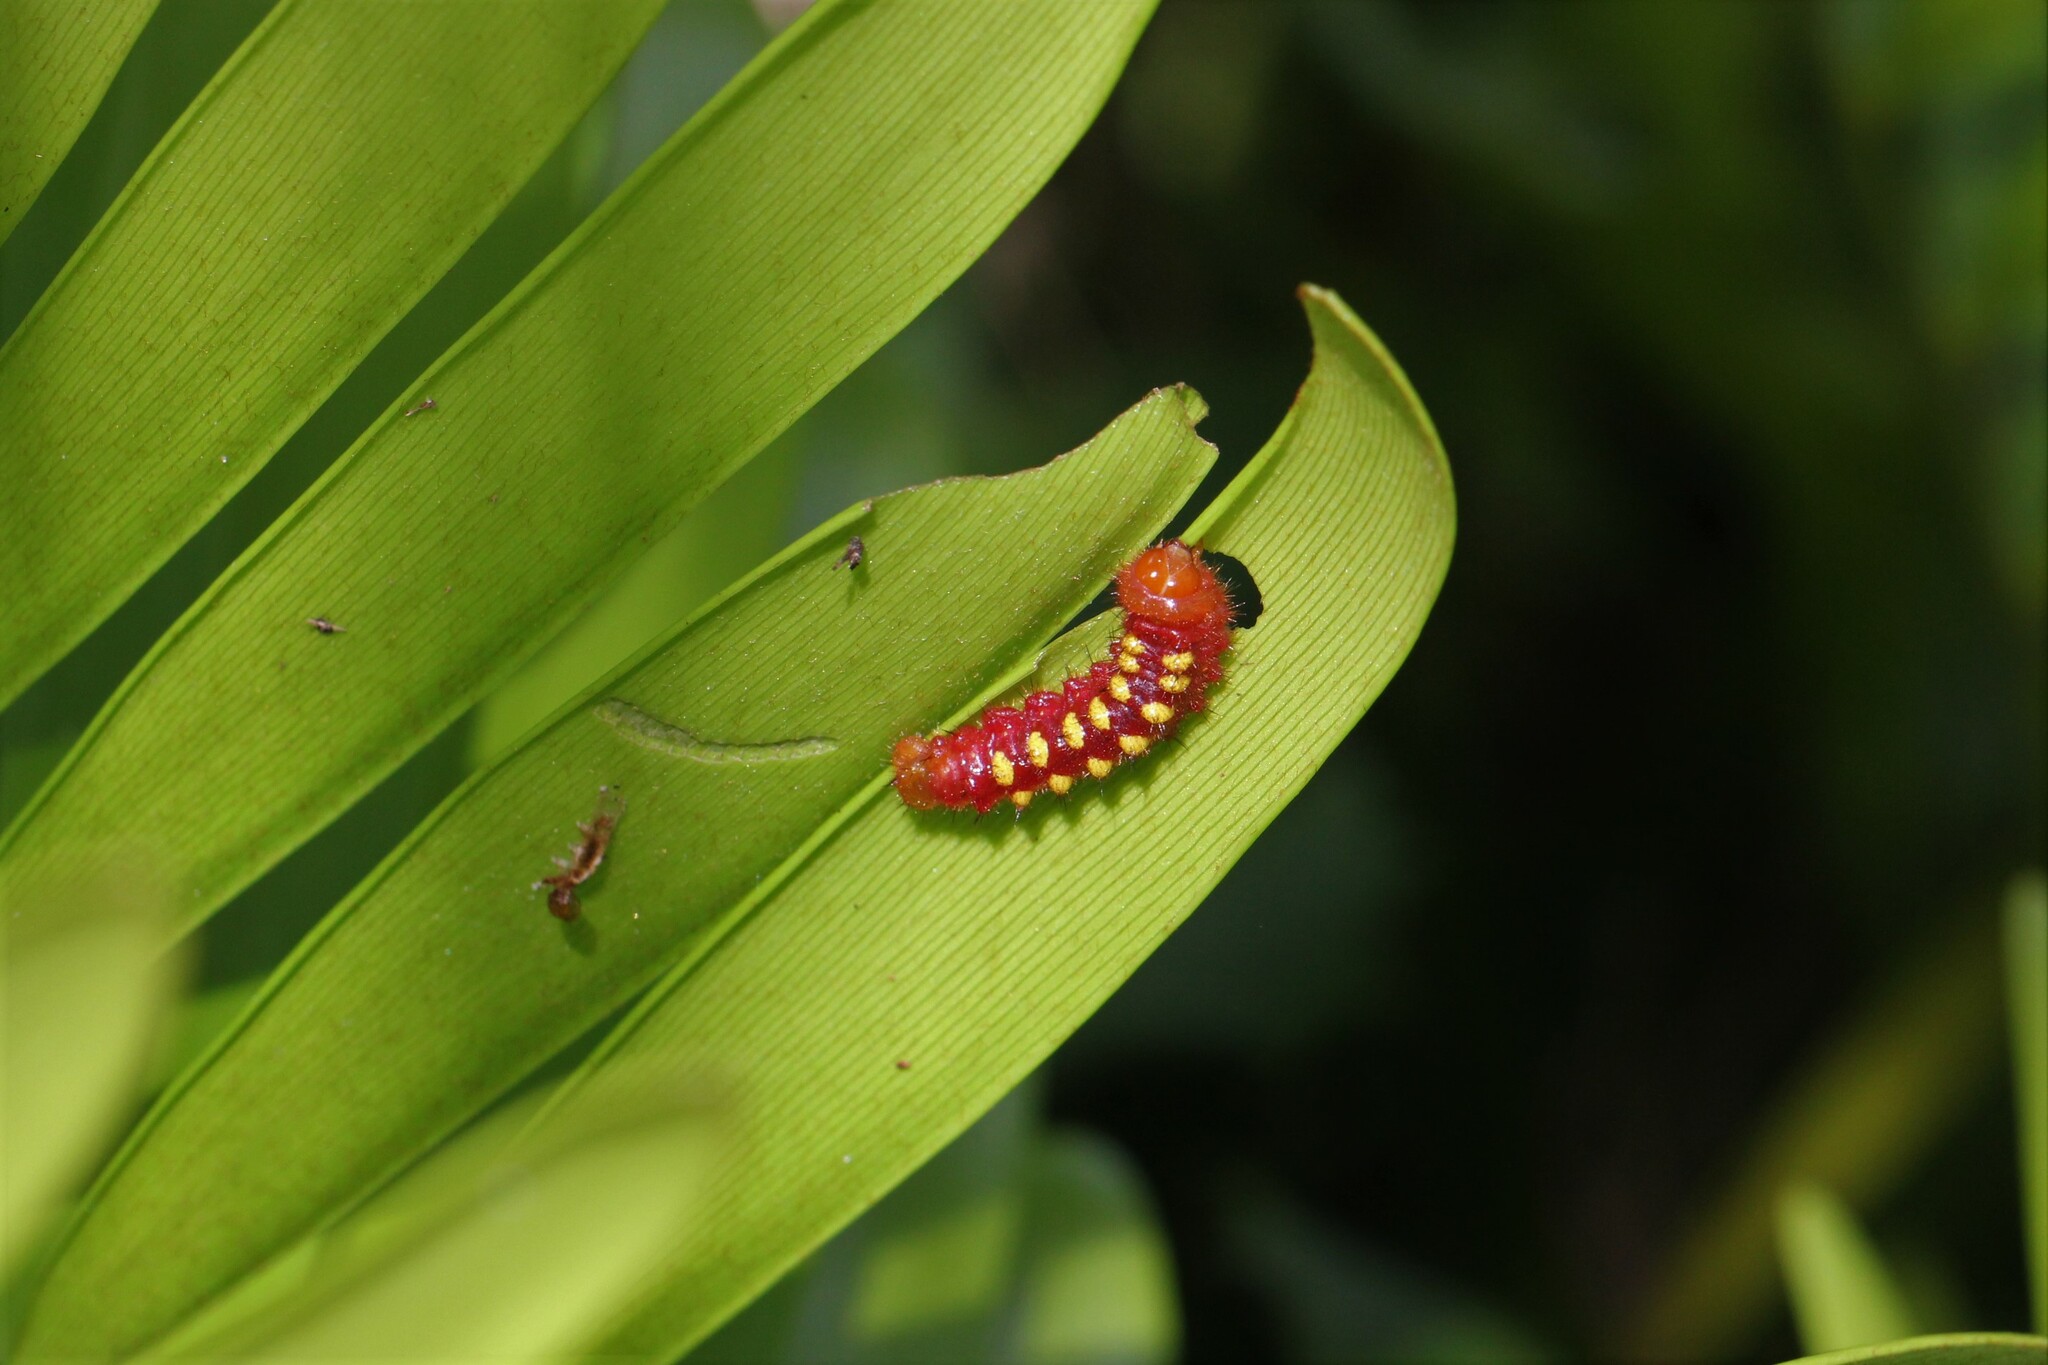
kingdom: Animalia
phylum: Arthropoda
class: Insecta
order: Lepidoptera
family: Lycaenidae
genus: Eumaeus
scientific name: Eumaeus atala
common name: Atala
